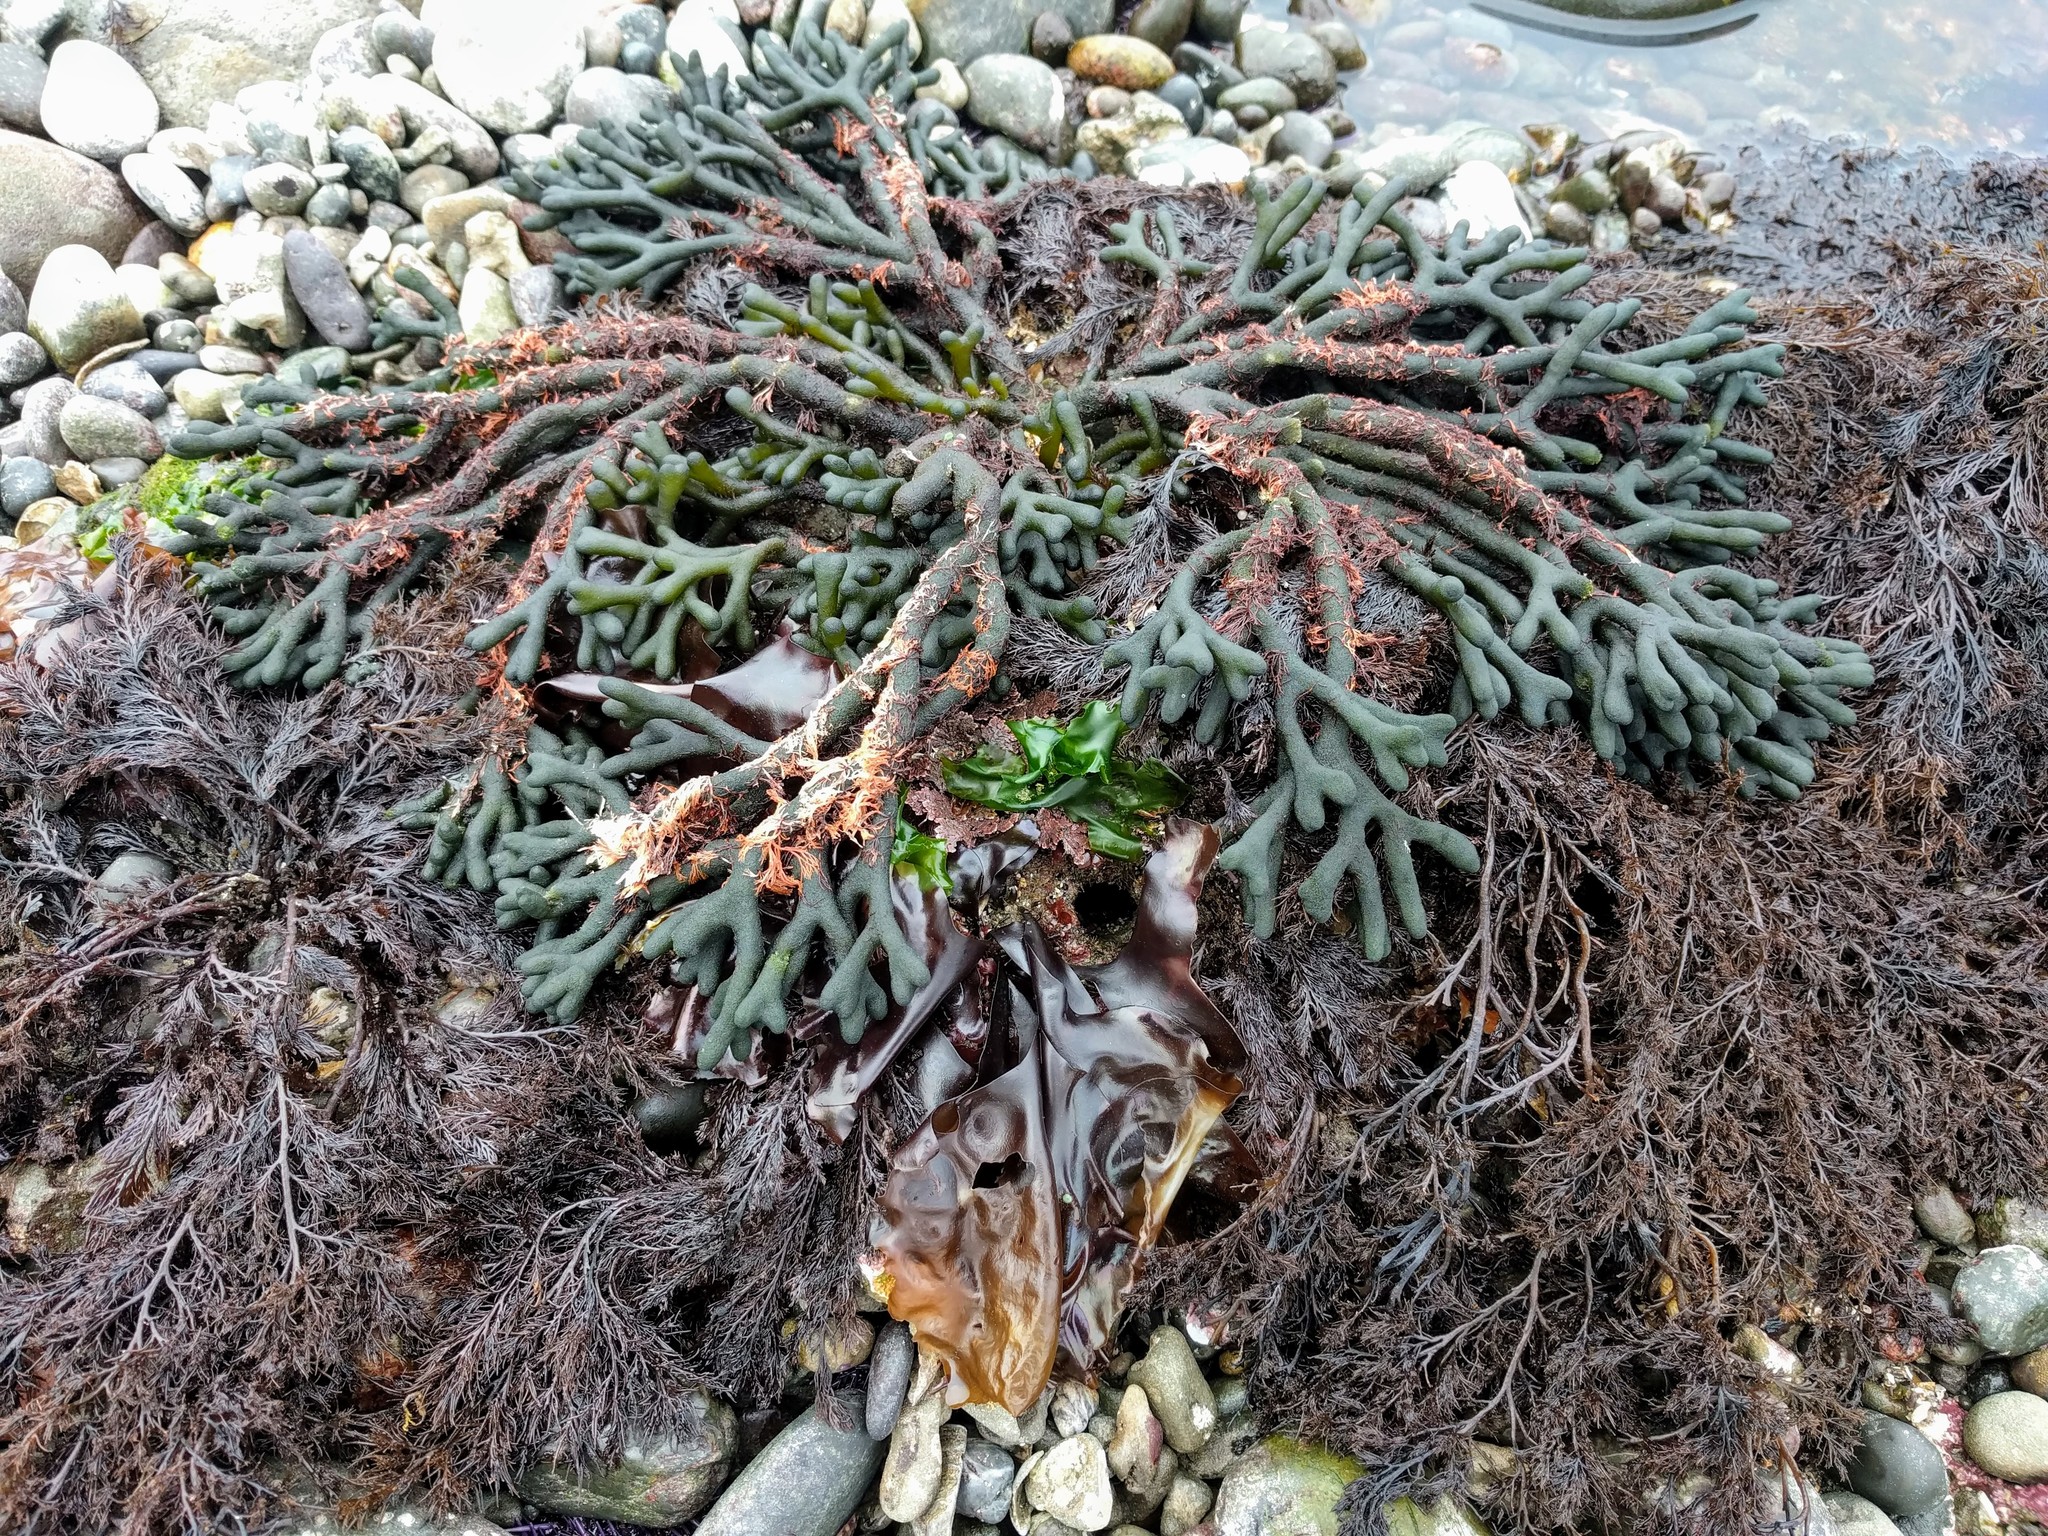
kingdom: Plantae
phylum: Chlorophyta
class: Ulvophyceae
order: Bryopsidales
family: Codiaceae
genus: Codium
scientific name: Codium fragile
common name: Dead man's fingers
